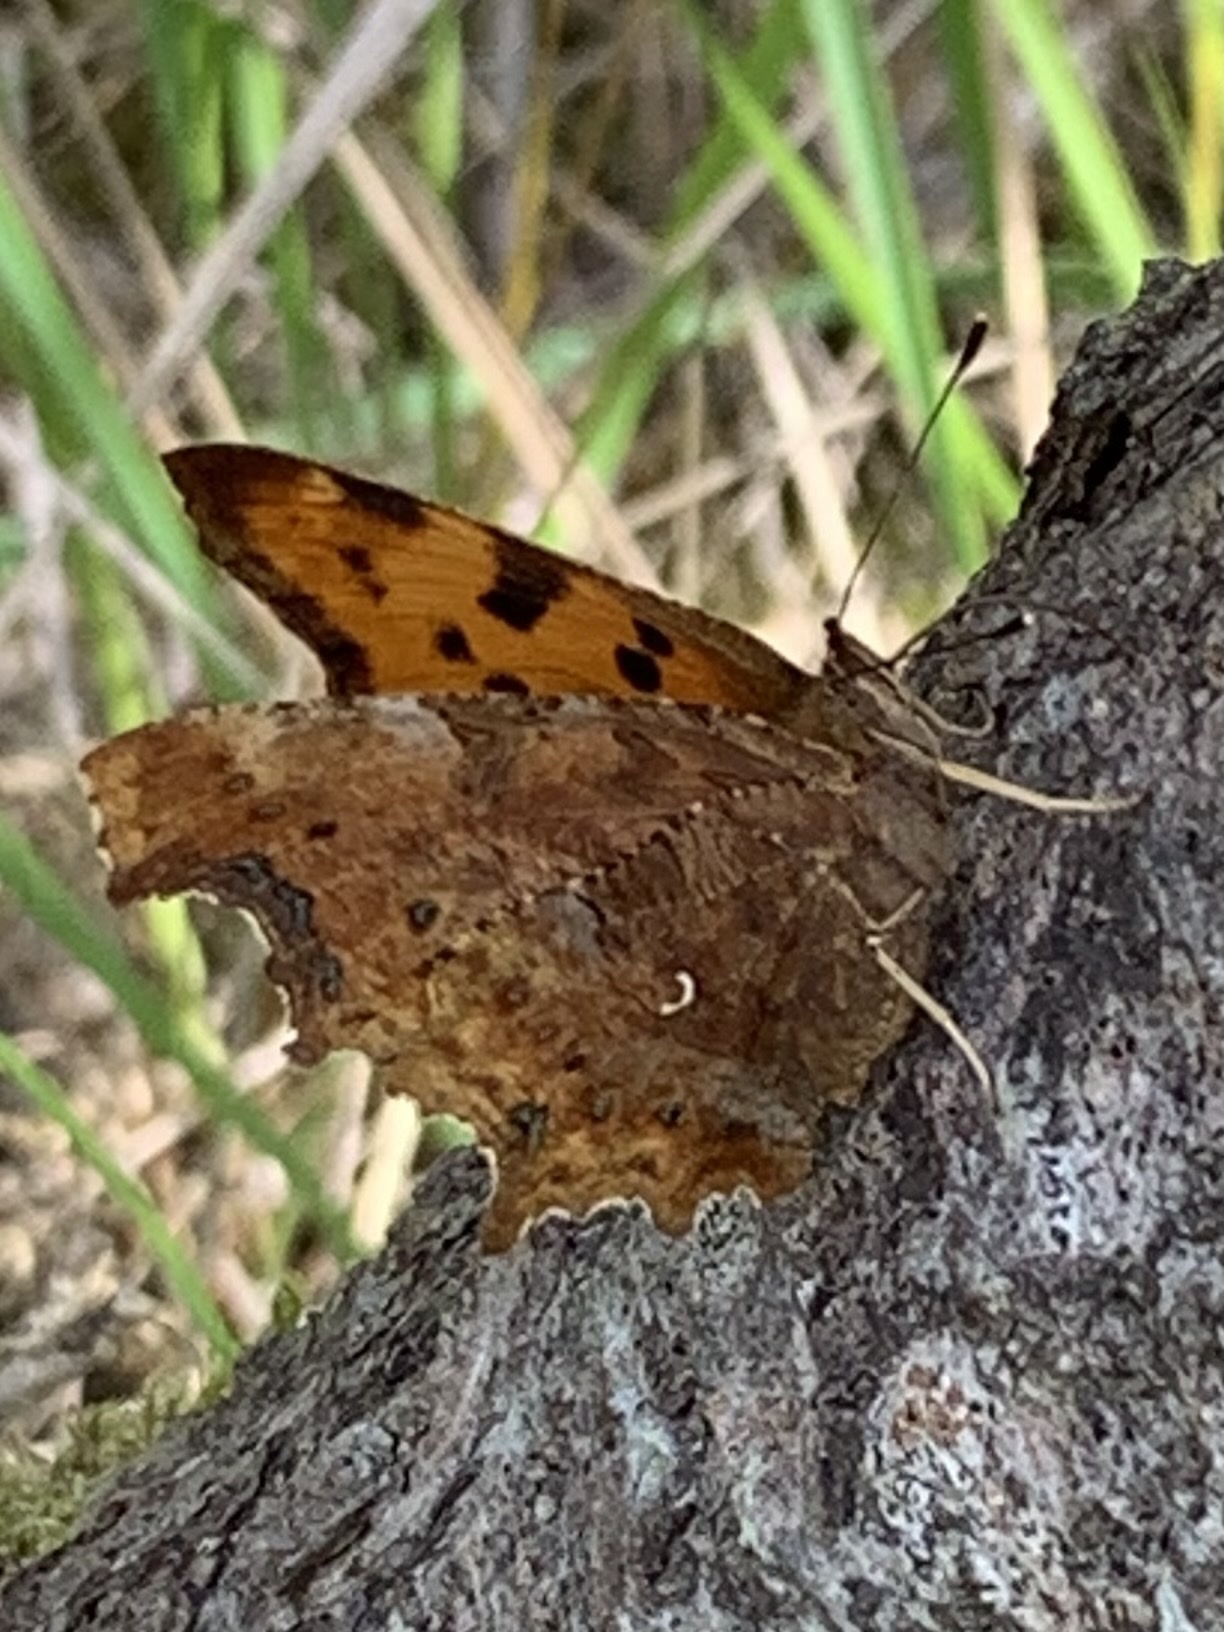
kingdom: Animalia
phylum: Arthropoda
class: Insecta
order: Lepidoptera
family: Nymphalidae
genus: Polygonia
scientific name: Polygonia c-album
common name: Comma
